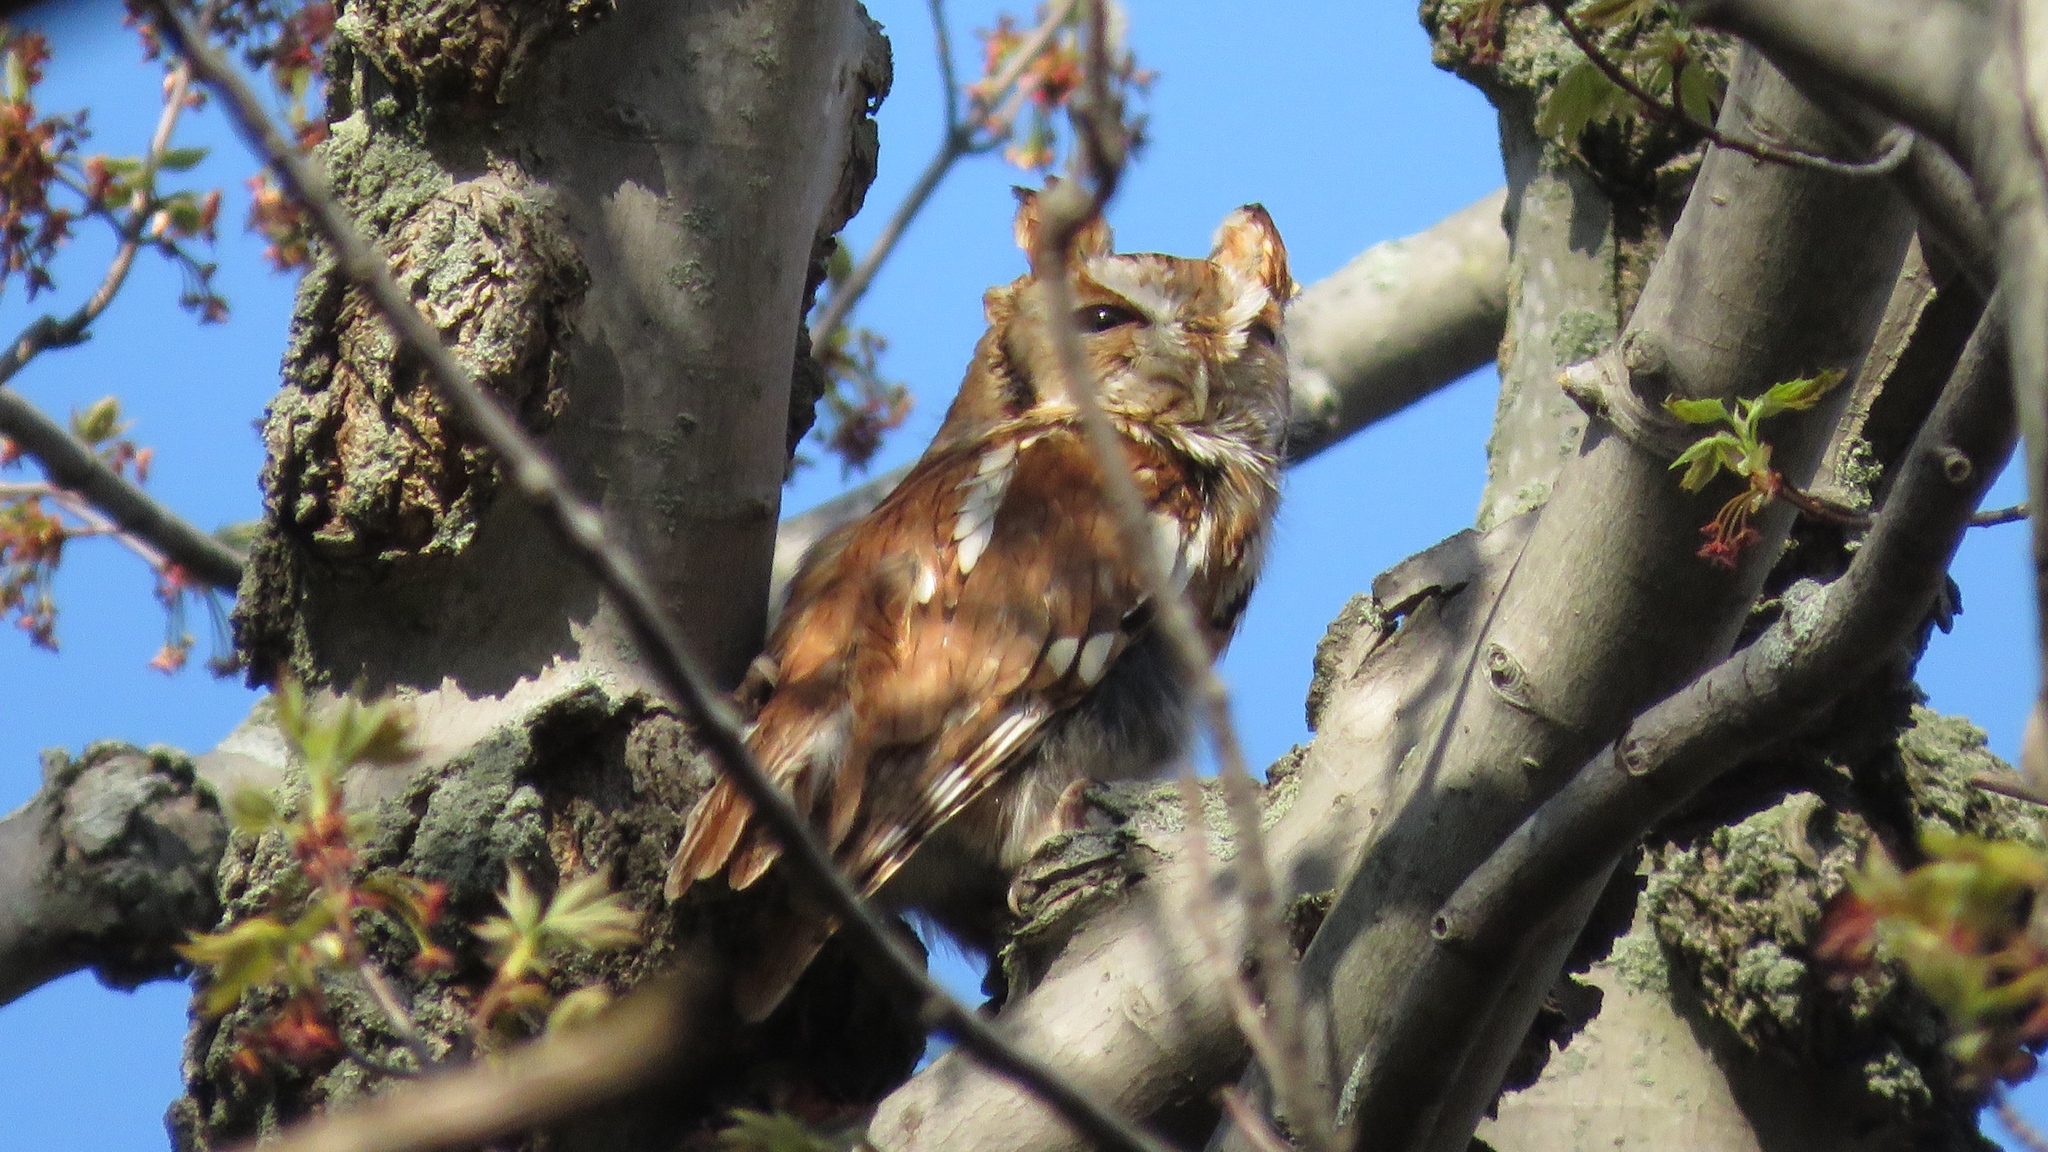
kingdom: Animalia
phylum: Chordata
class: Aves
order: Strigiformes
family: Strigidae
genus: Megascops
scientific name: Megascops asio
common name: Eastern screech-owl
